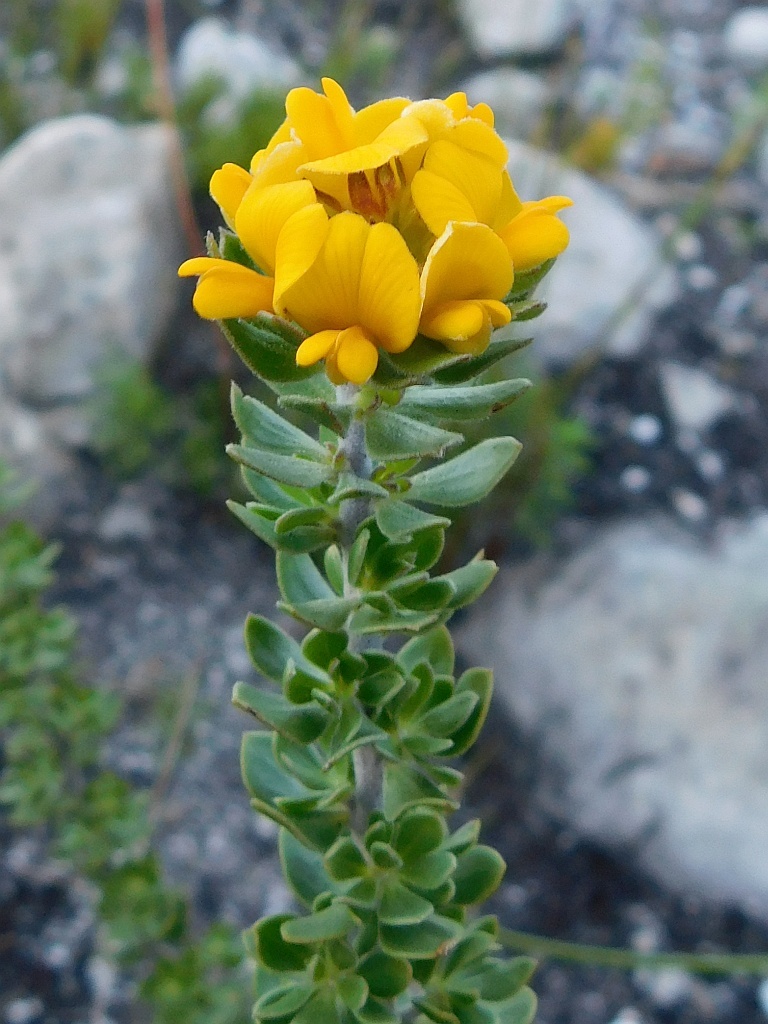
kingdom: Plantae
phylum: Tracheophyta
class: Magnoliopsida
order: Fabales
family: Fabaceae
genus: Aspalathus
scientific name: Aspalathus securifolia
